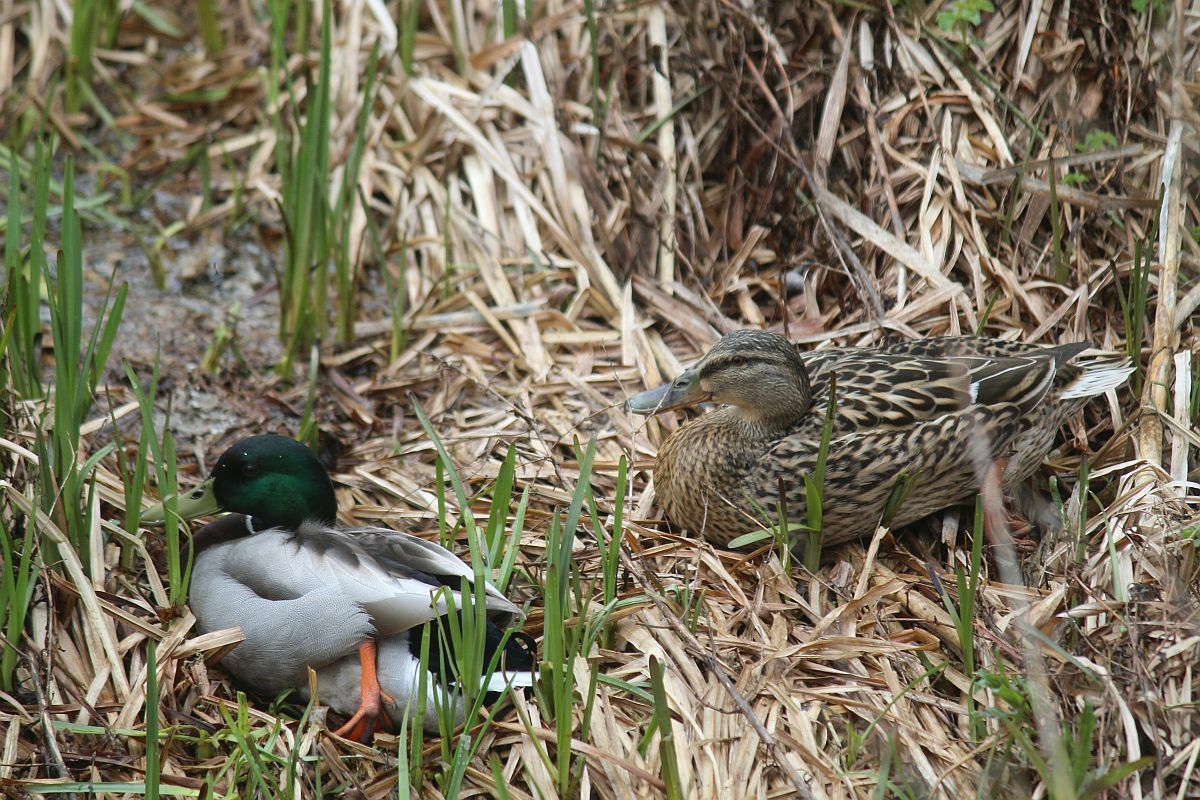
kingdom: Animalia
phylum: Chordata
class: Aves
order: Anseriformes
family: Anatidae
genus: Anas
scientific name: Anas platyrhynchos
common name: Mallard
